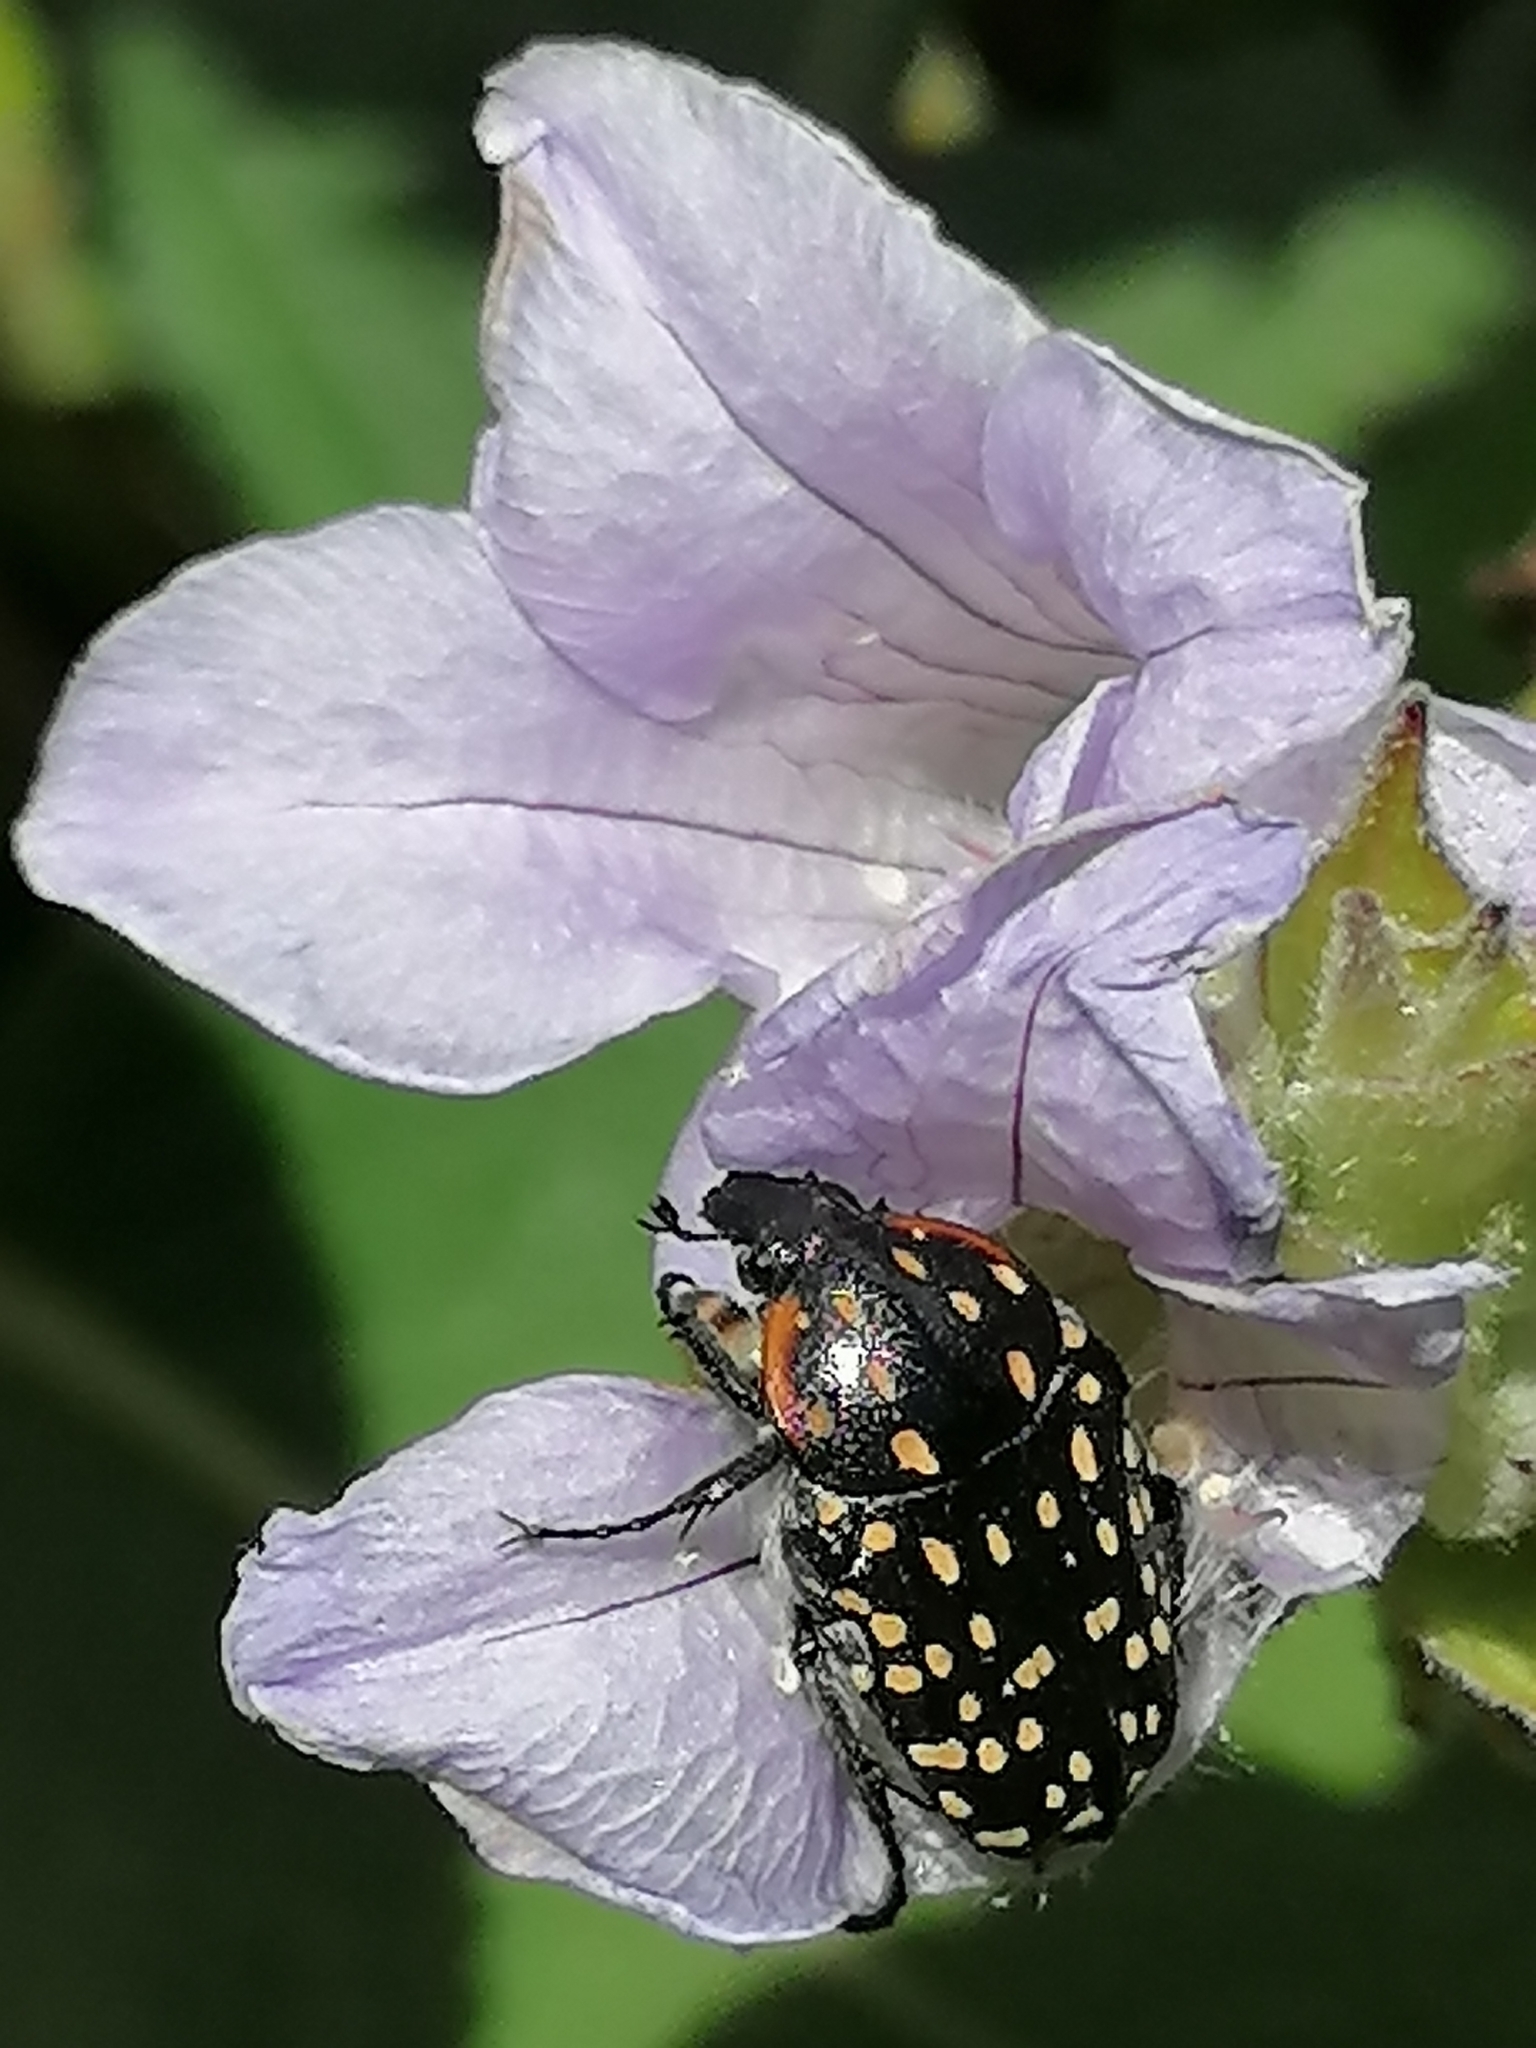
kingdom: Animalia
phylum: Arthropoda
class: Insecta
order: Coleoptera
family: Scarabaeidae
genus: Oxythyrea
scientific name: Oxythyrea
